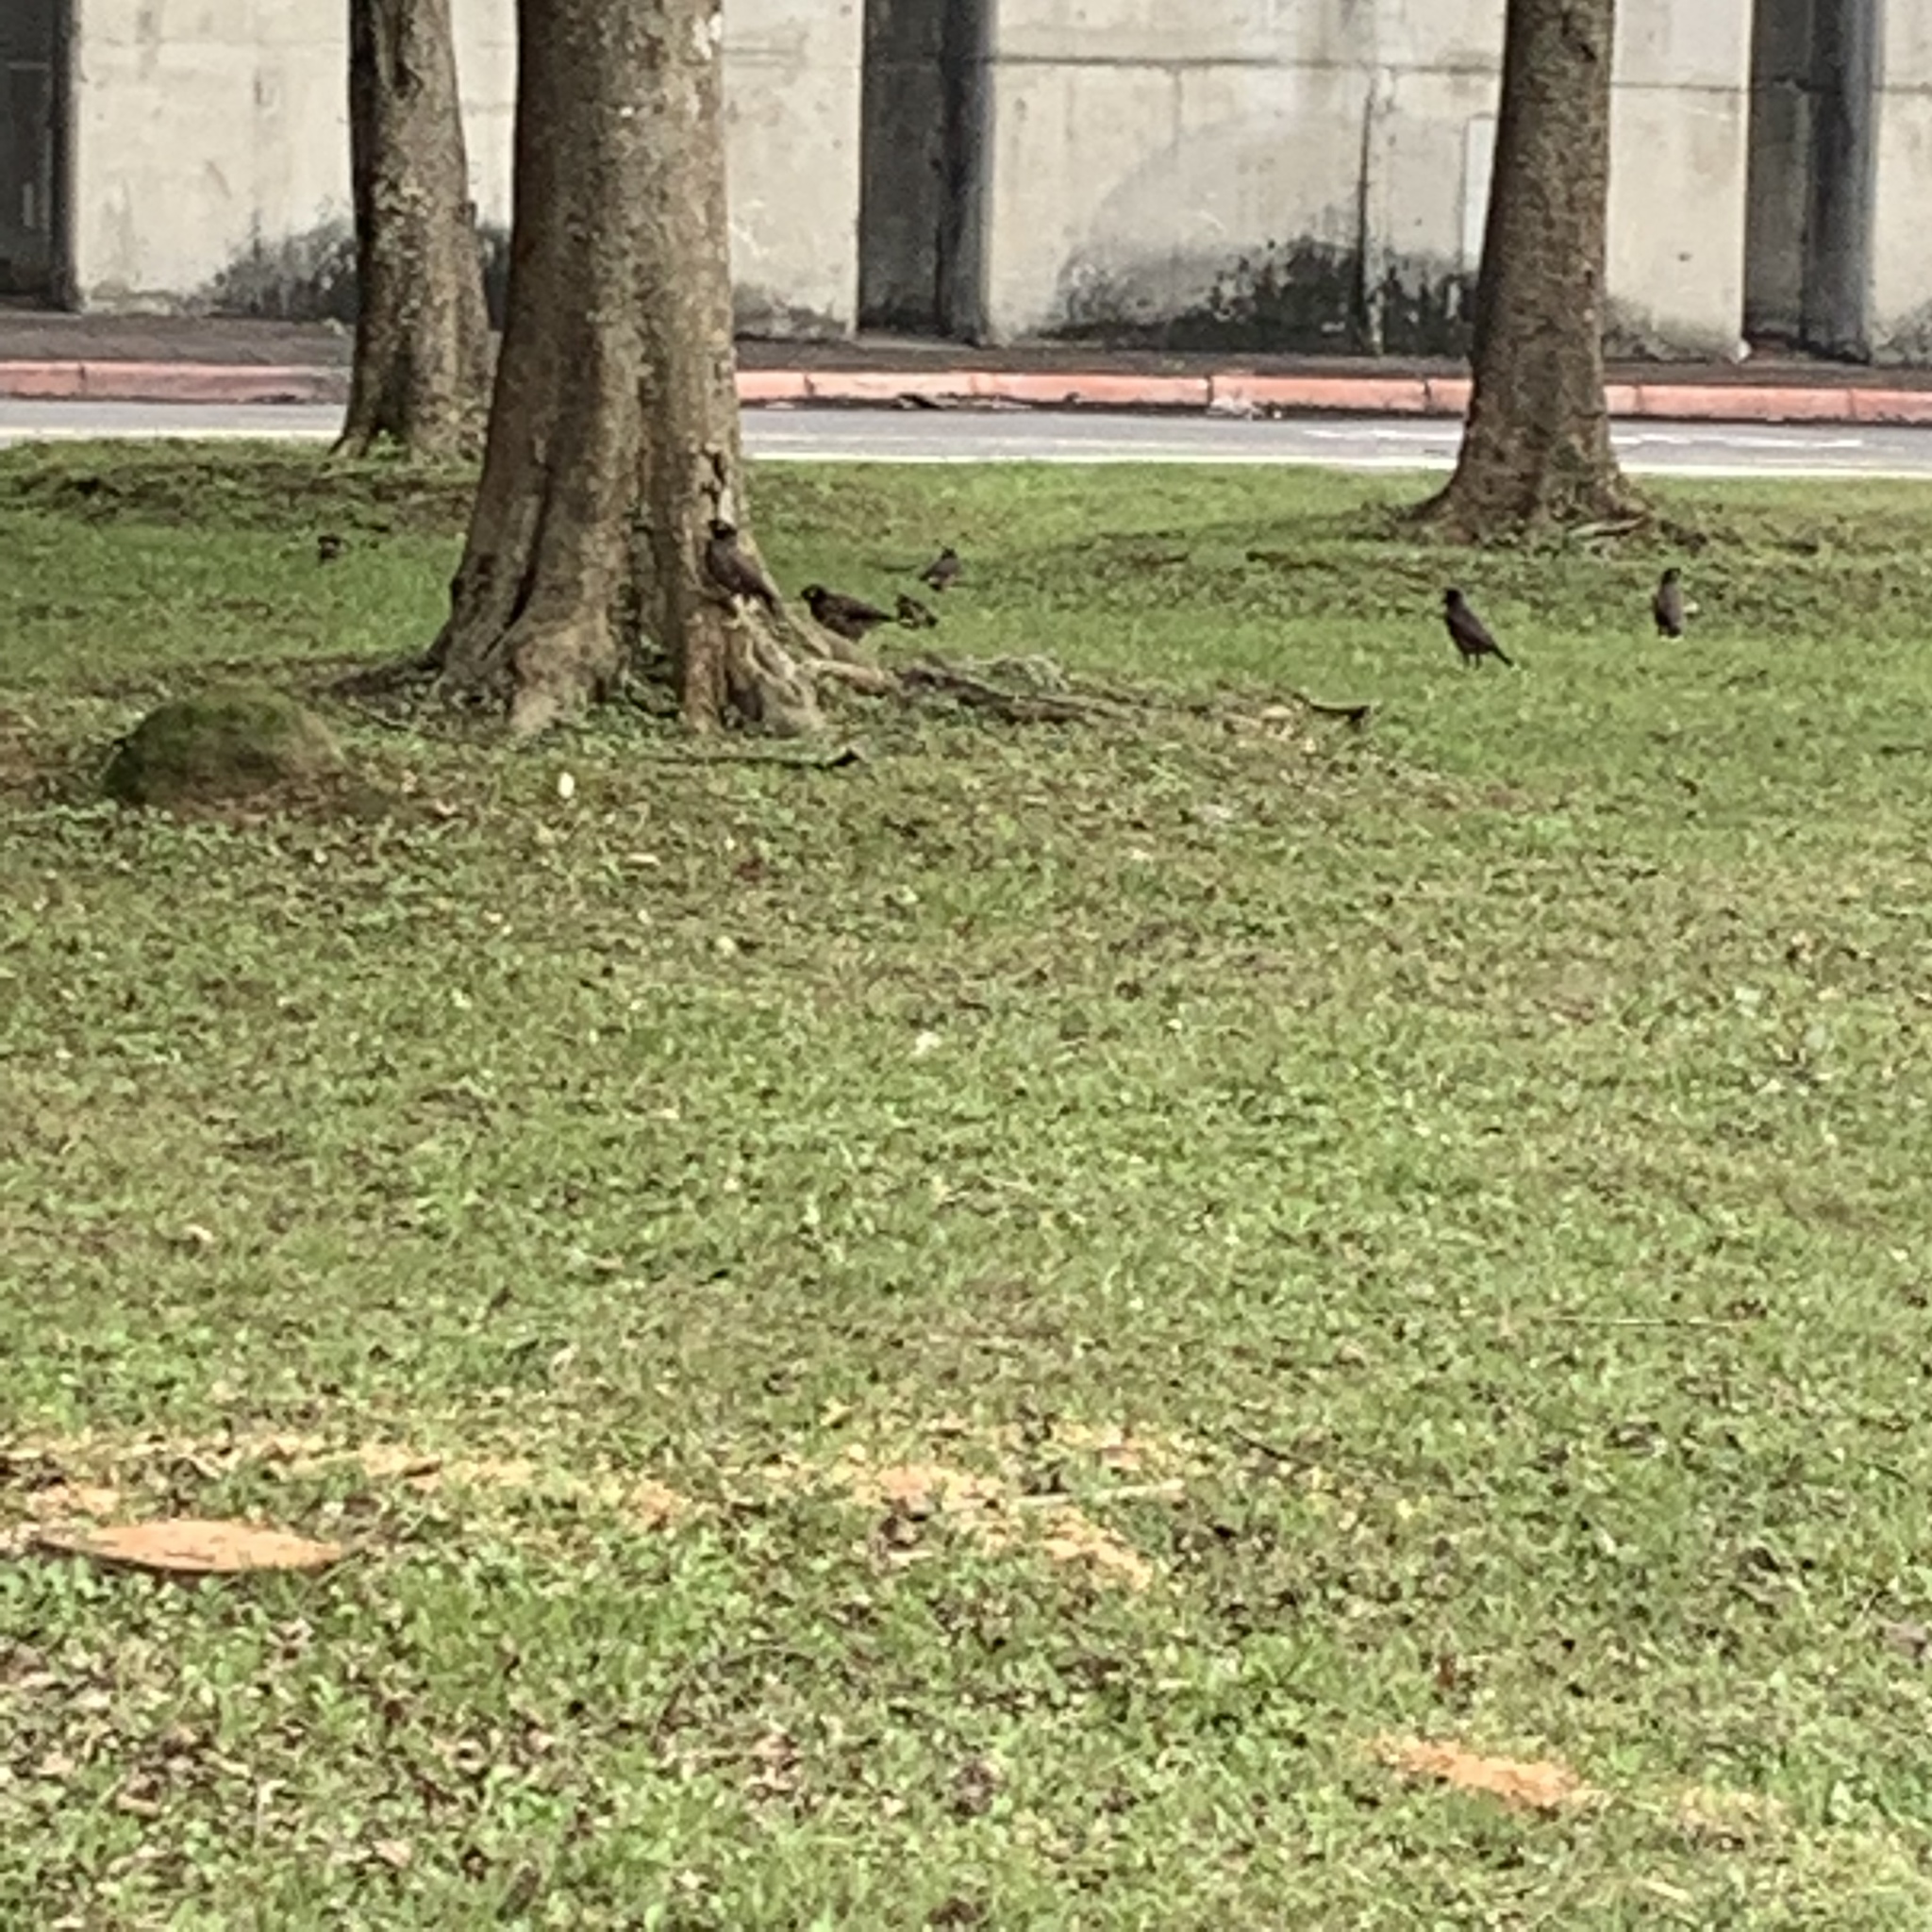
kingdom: Animalia
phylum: Chordata
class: Aves
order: Passeriformes
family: Sturnidae
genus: Acridotheres
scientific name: Acridotheres tristis
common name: Common myna
